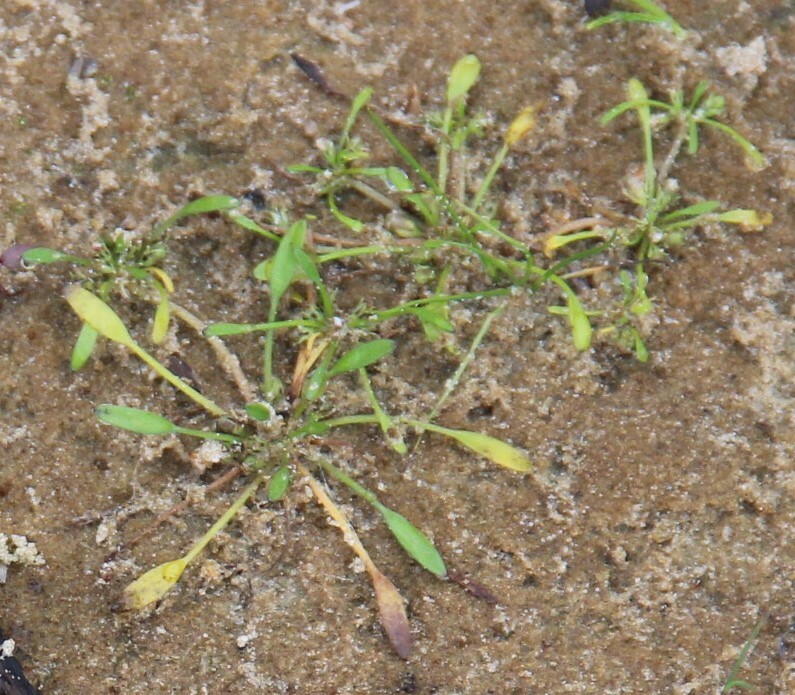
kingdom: Plantae
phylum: Tracheophyta
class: Magnoliopsida
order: Lamiales
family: Scrophulariaceae
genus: Limosella
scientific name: Limosella aquatica
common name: Mudwort
